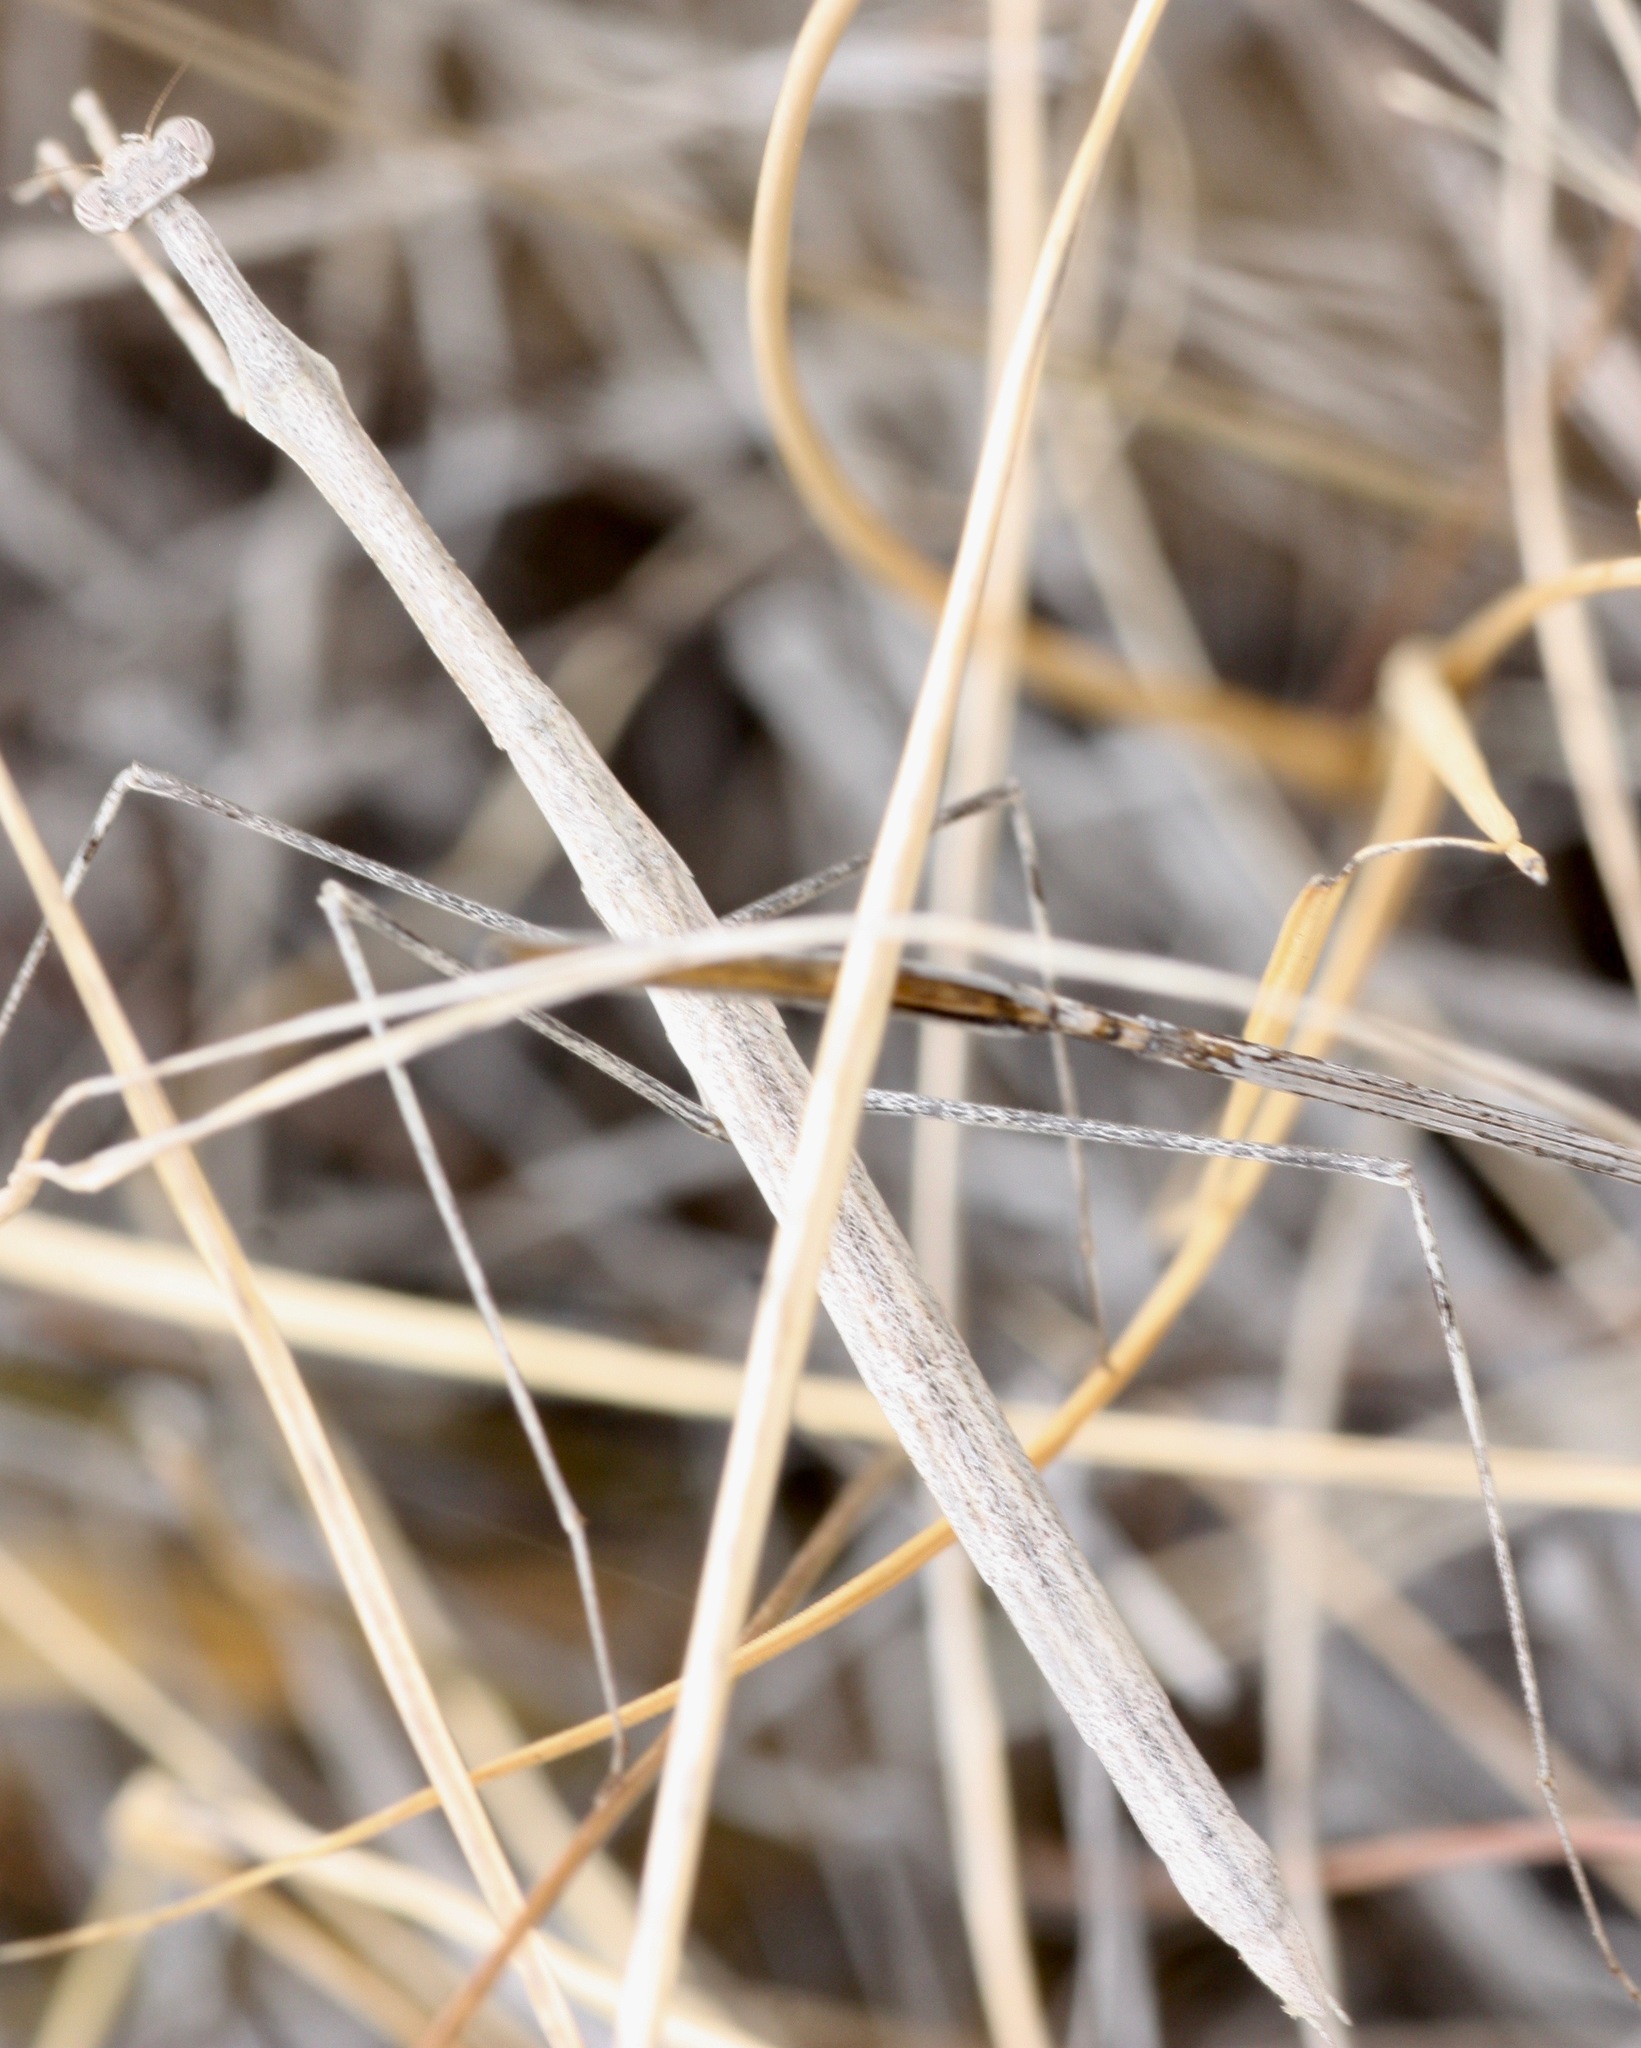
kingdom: Animalia
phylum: Arthropoda
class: Insecta
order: Mantodea
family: Thespidae
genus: Bistanta
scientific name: Bistanta mexicana
